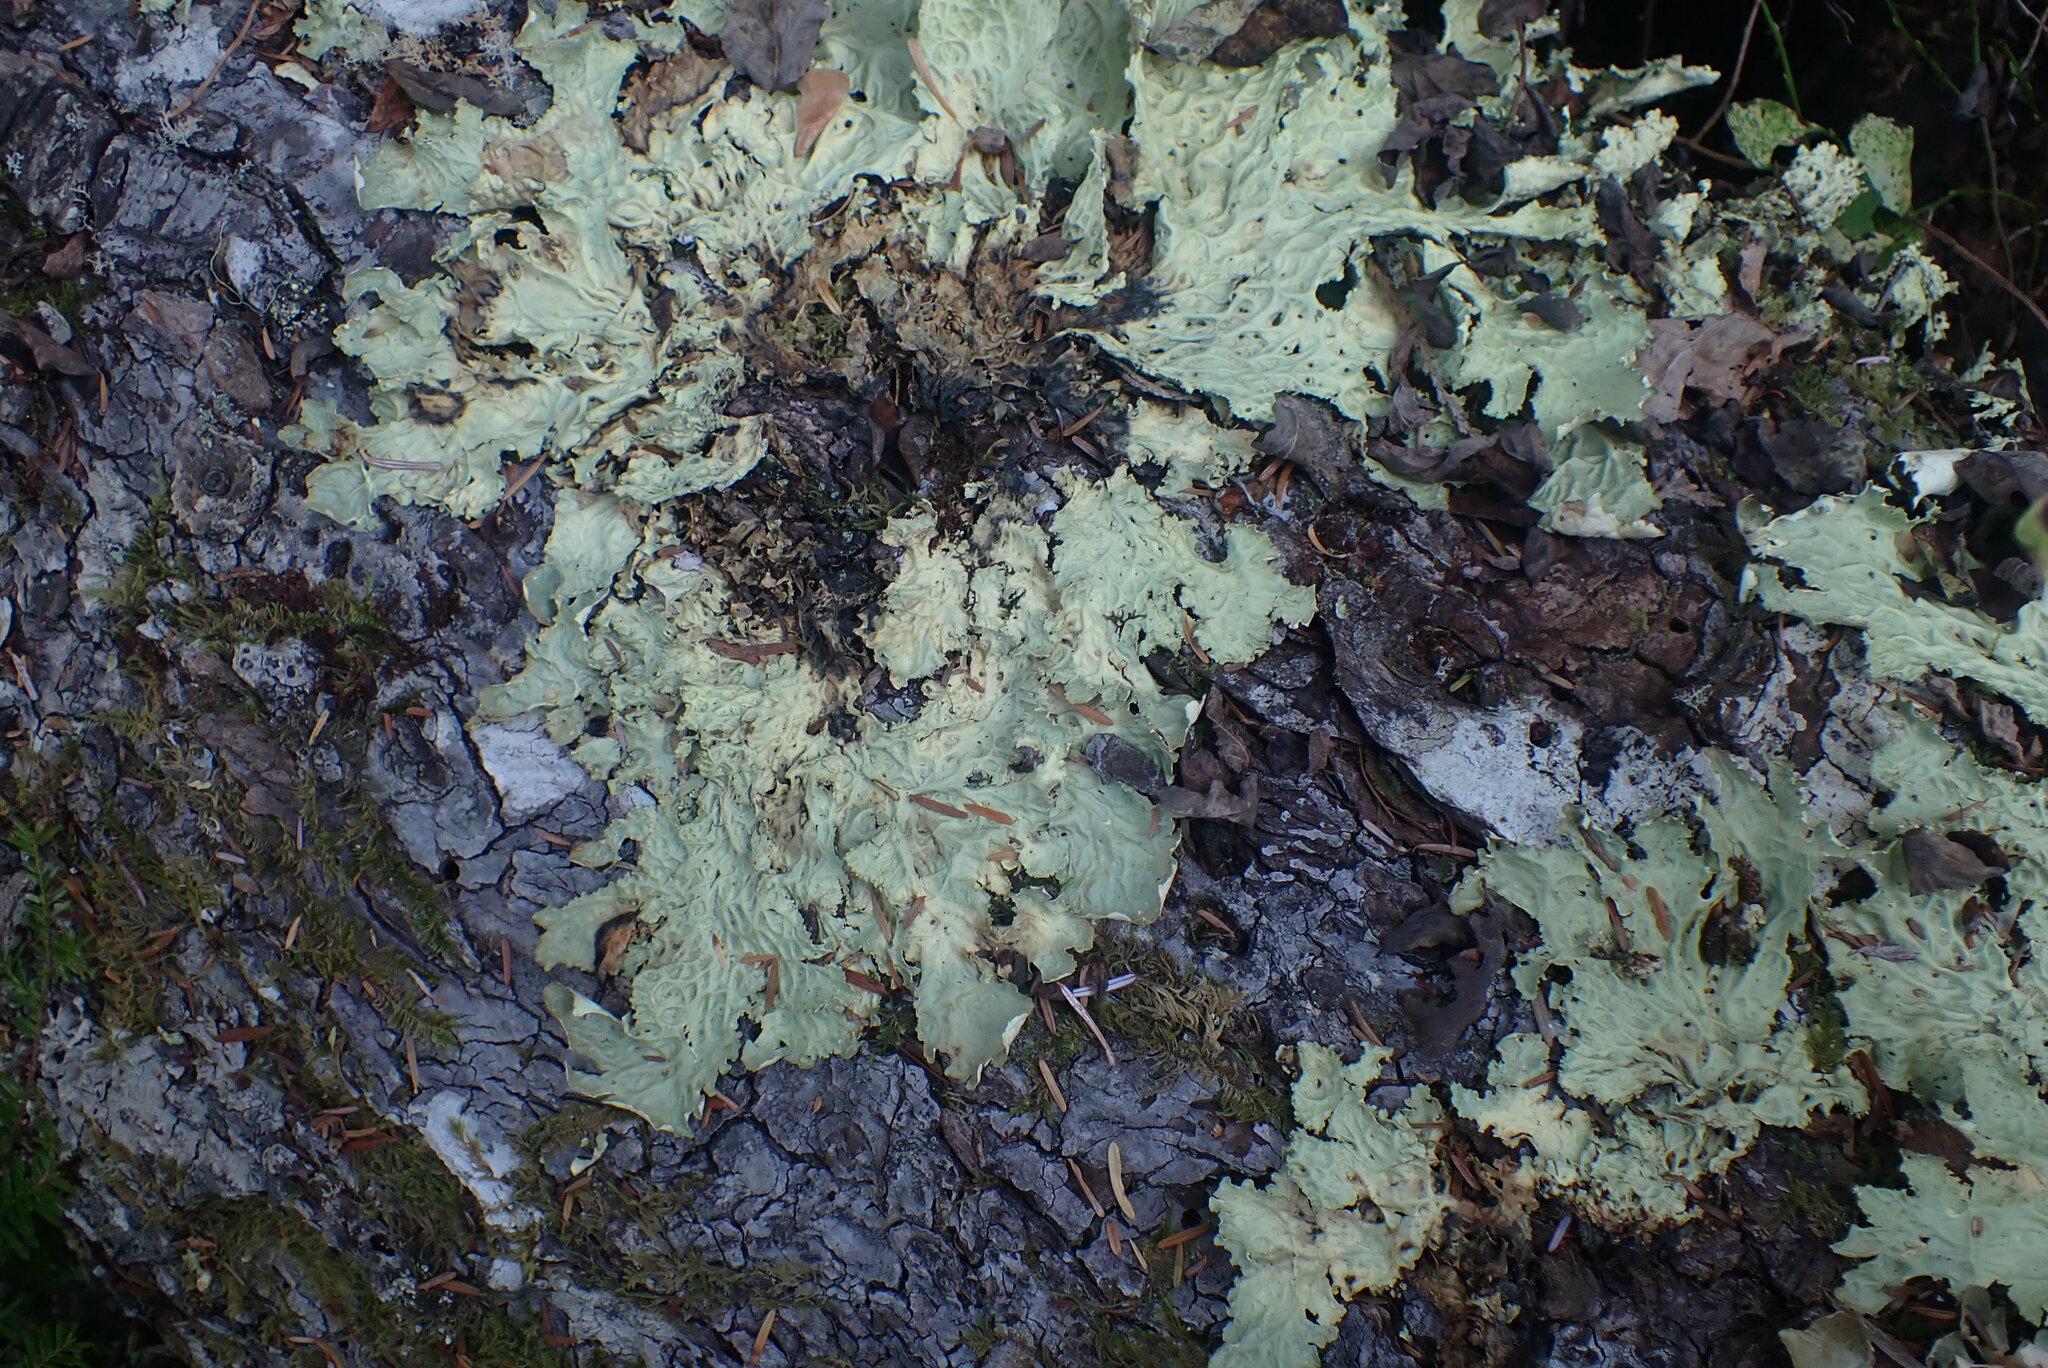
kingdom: Fungi
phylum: Ascomycota
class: Lecanoromycetes
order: Peltigerales
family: Lobariaceae
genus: Lobaria
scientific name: Lobaria oregana
